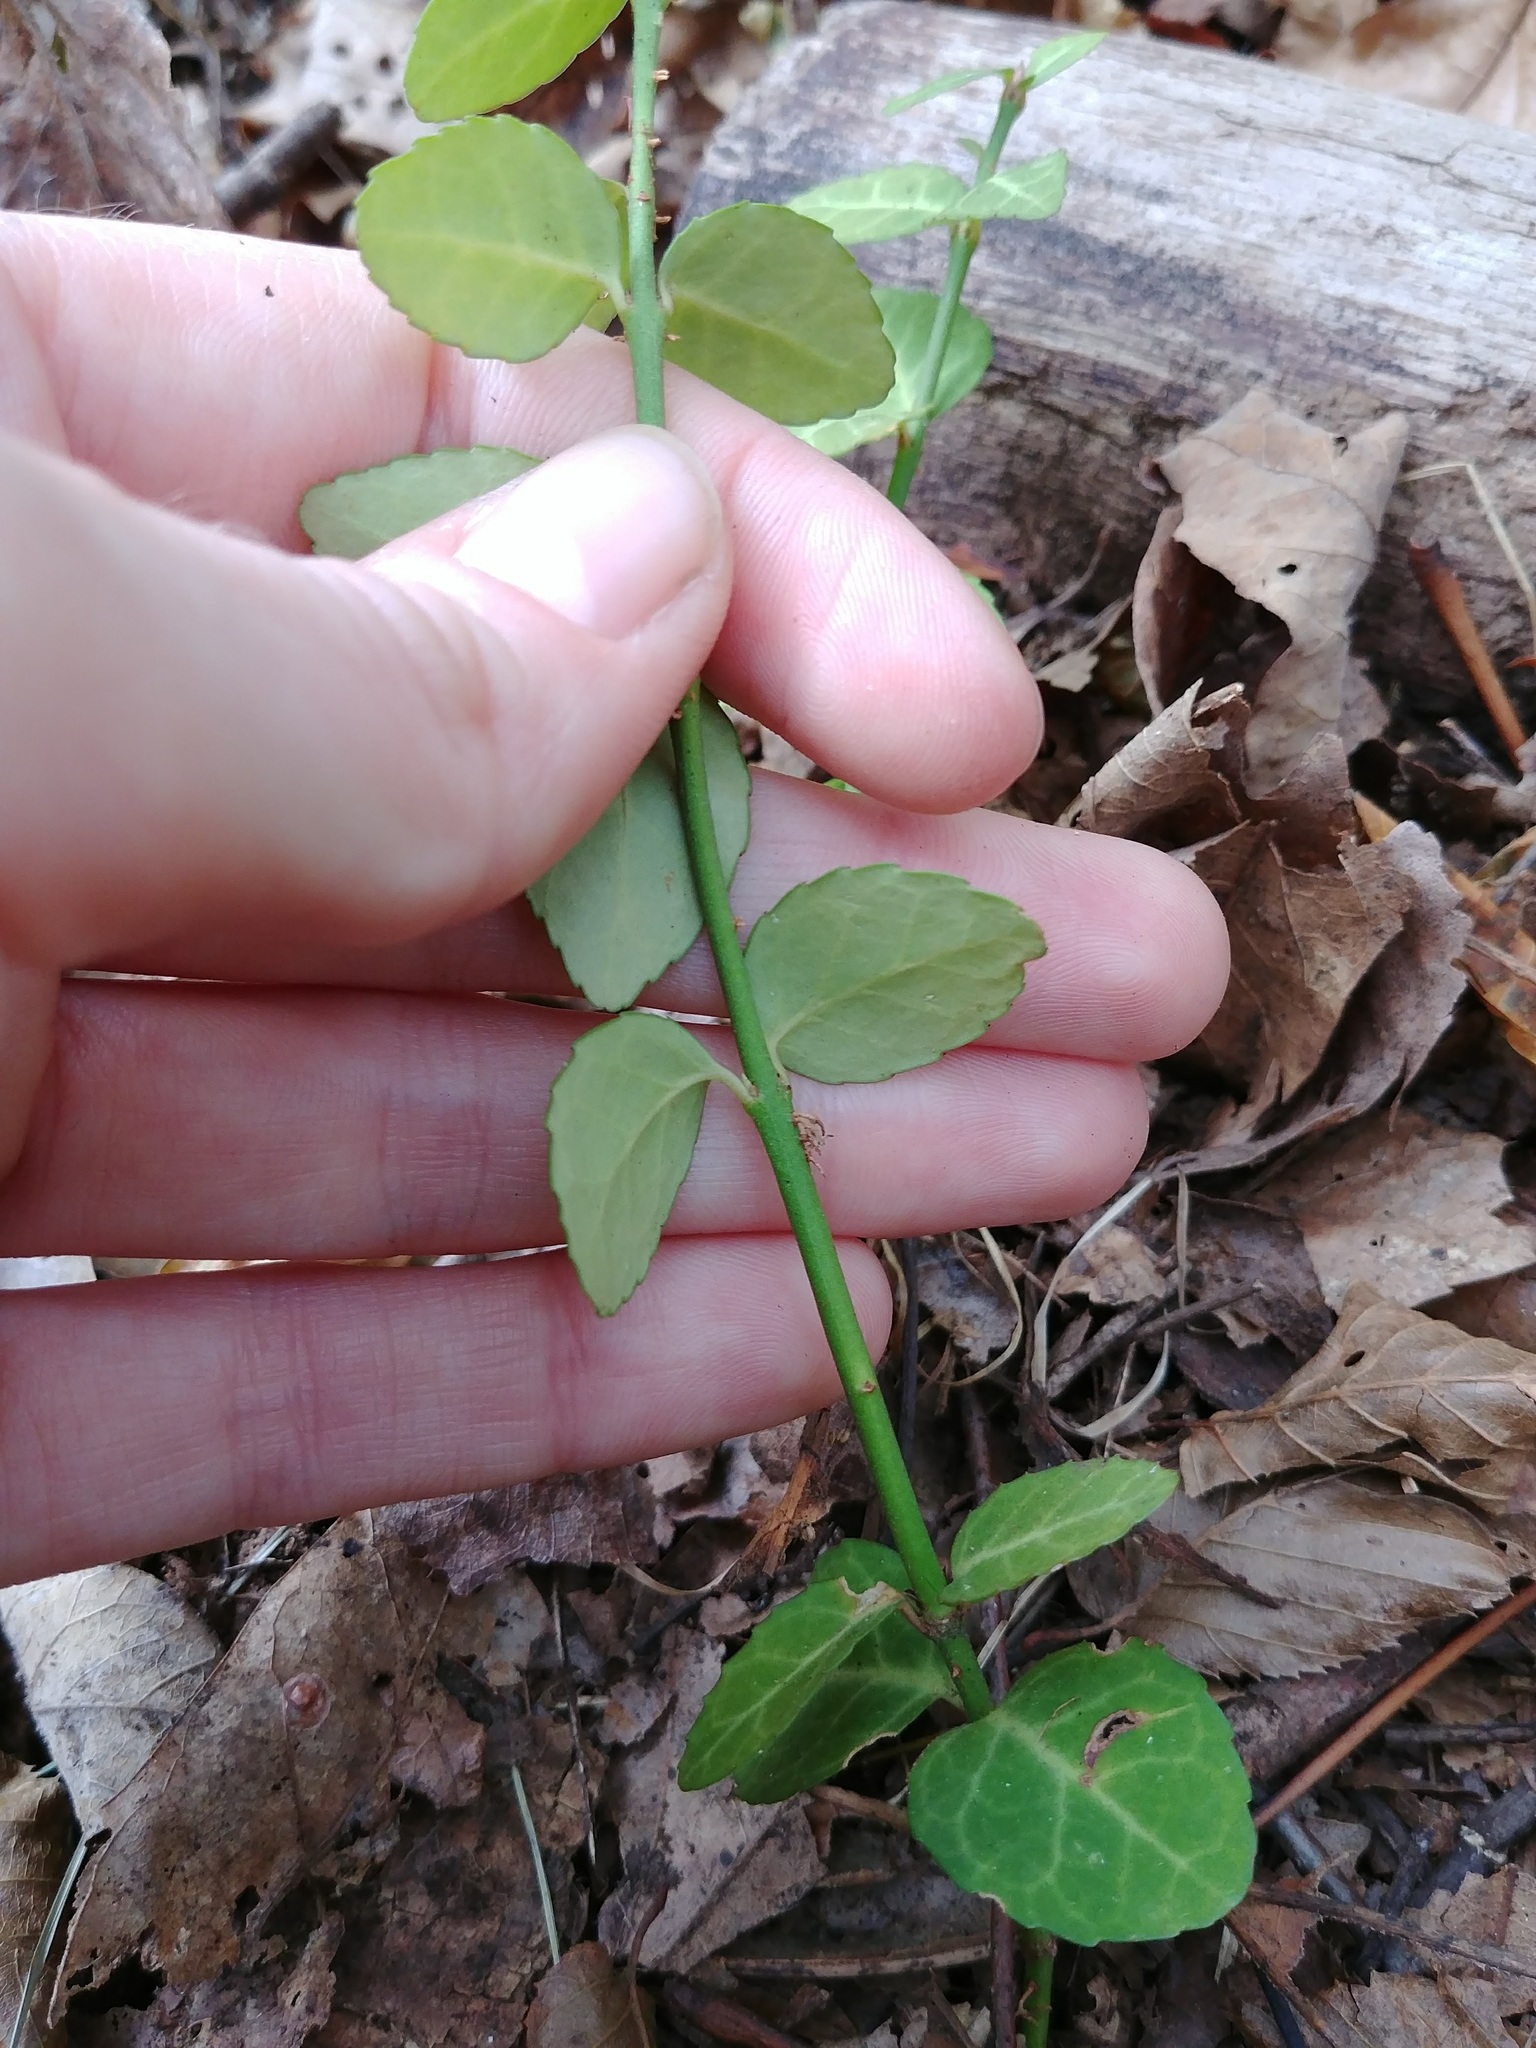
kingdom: Plantae
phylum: Tracheophyta
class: Magnoliopsida
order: Celastrales
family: Celastraceae
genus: Euonymus
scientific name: Euonymus fortunei
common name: Climbing euonymus
